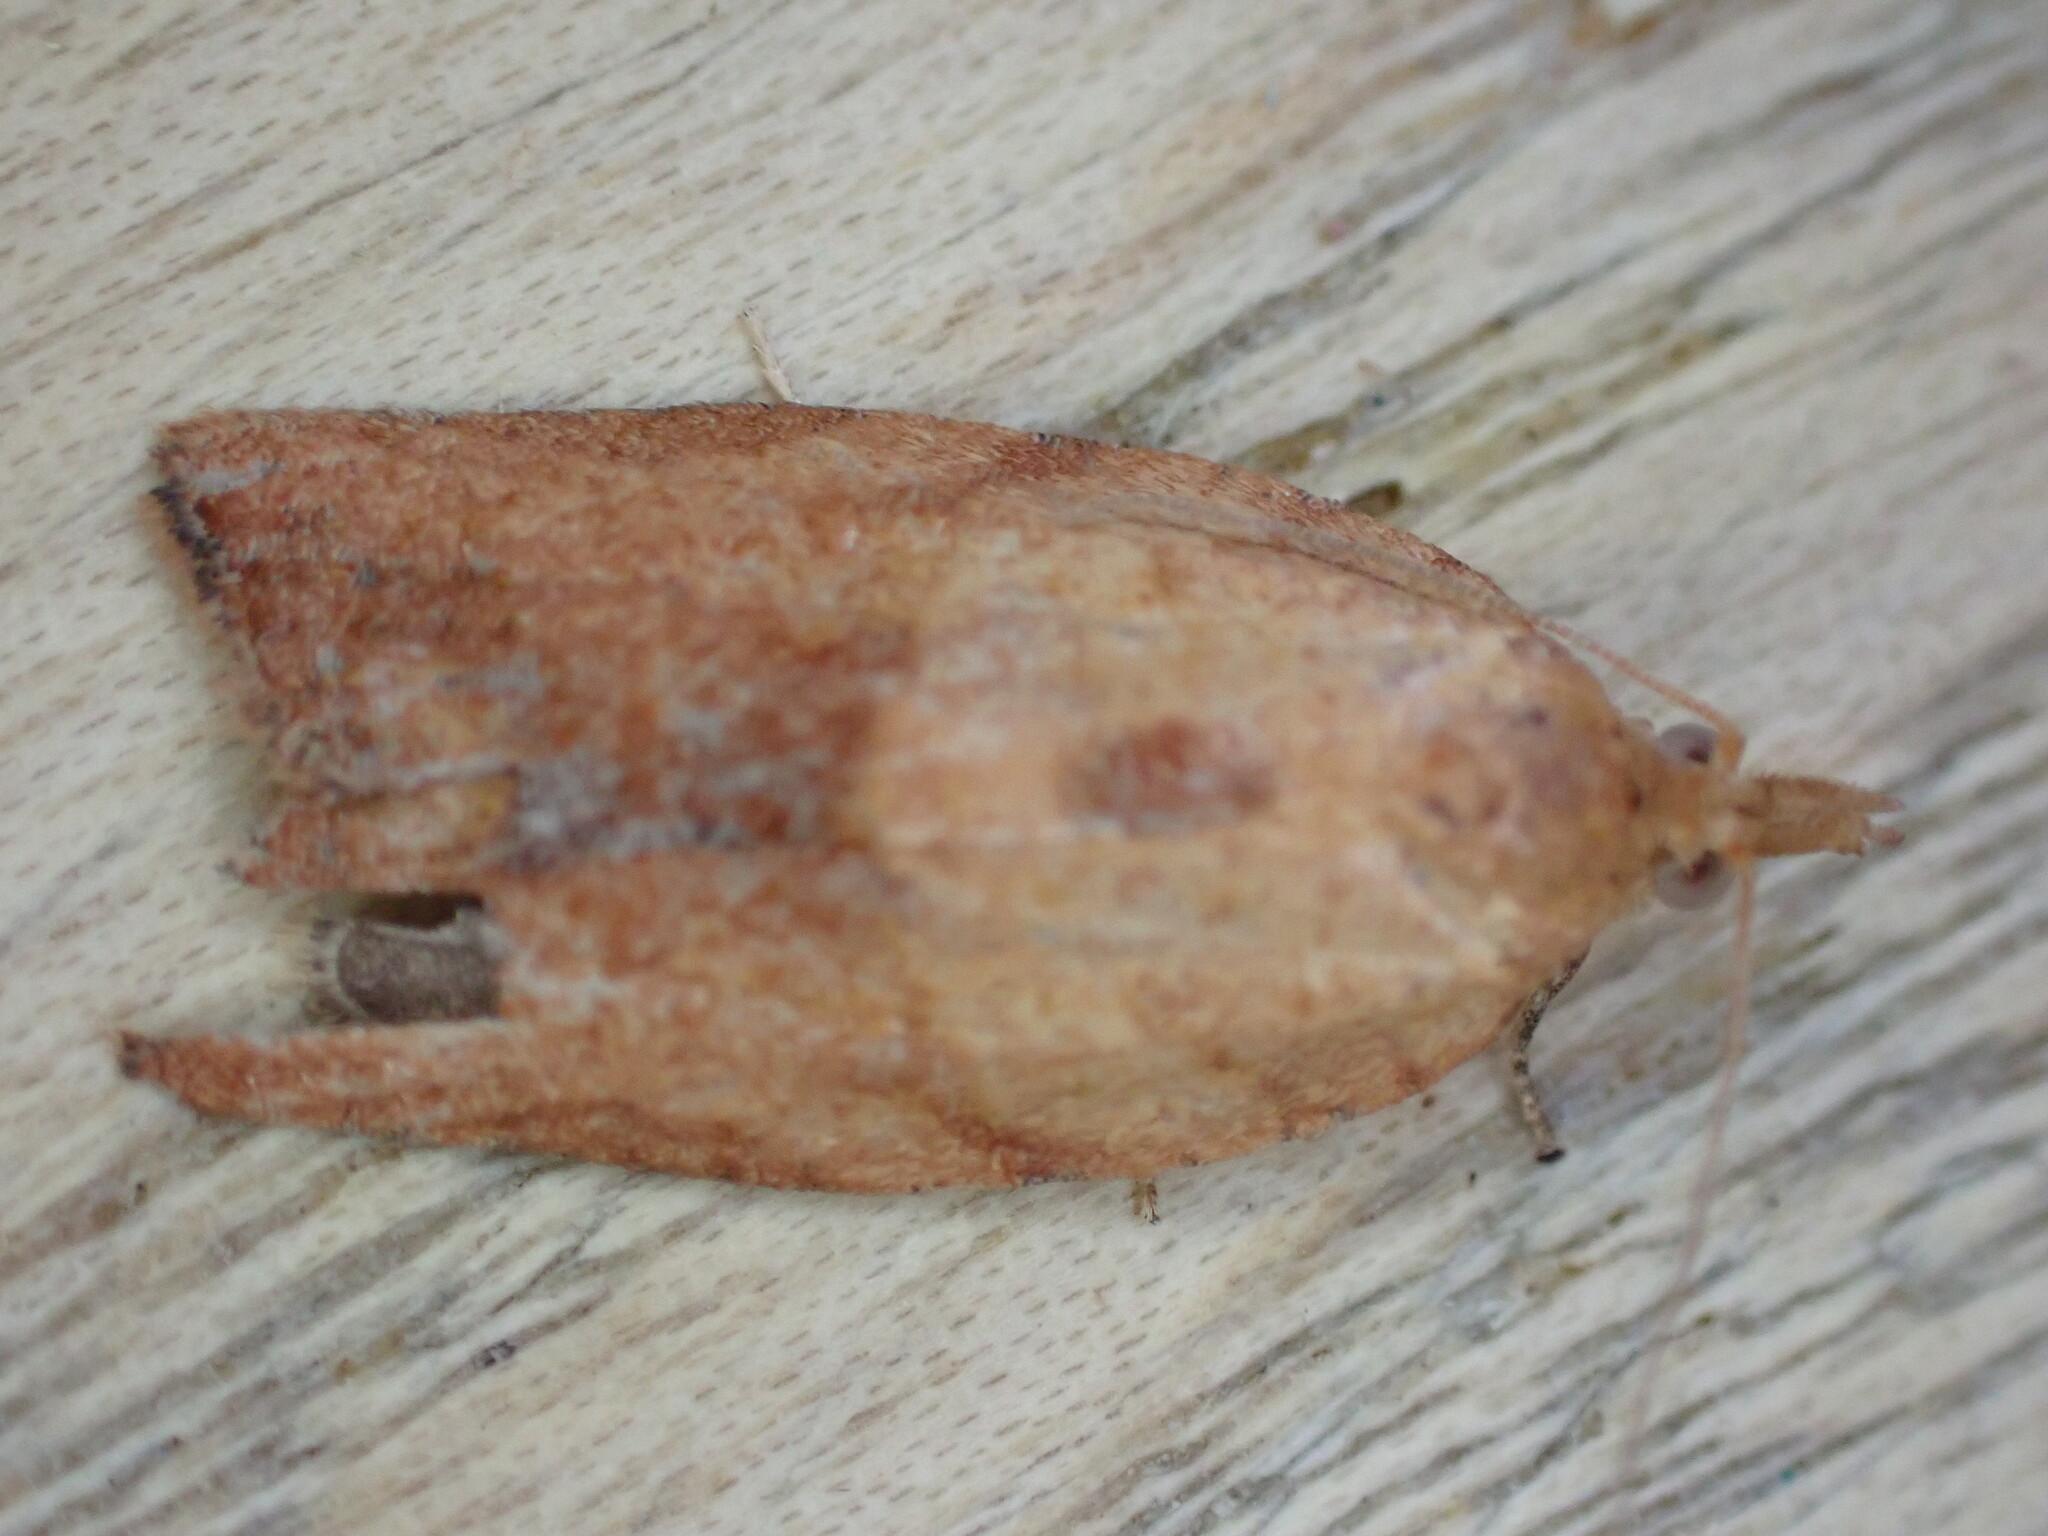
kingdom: Animalia
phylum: Arthropoda
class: Insecta
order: Lepidoptera
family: Tortricidae
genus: Epiphyas
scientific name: Epiphyas postvittana
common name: Light brown apple moth
